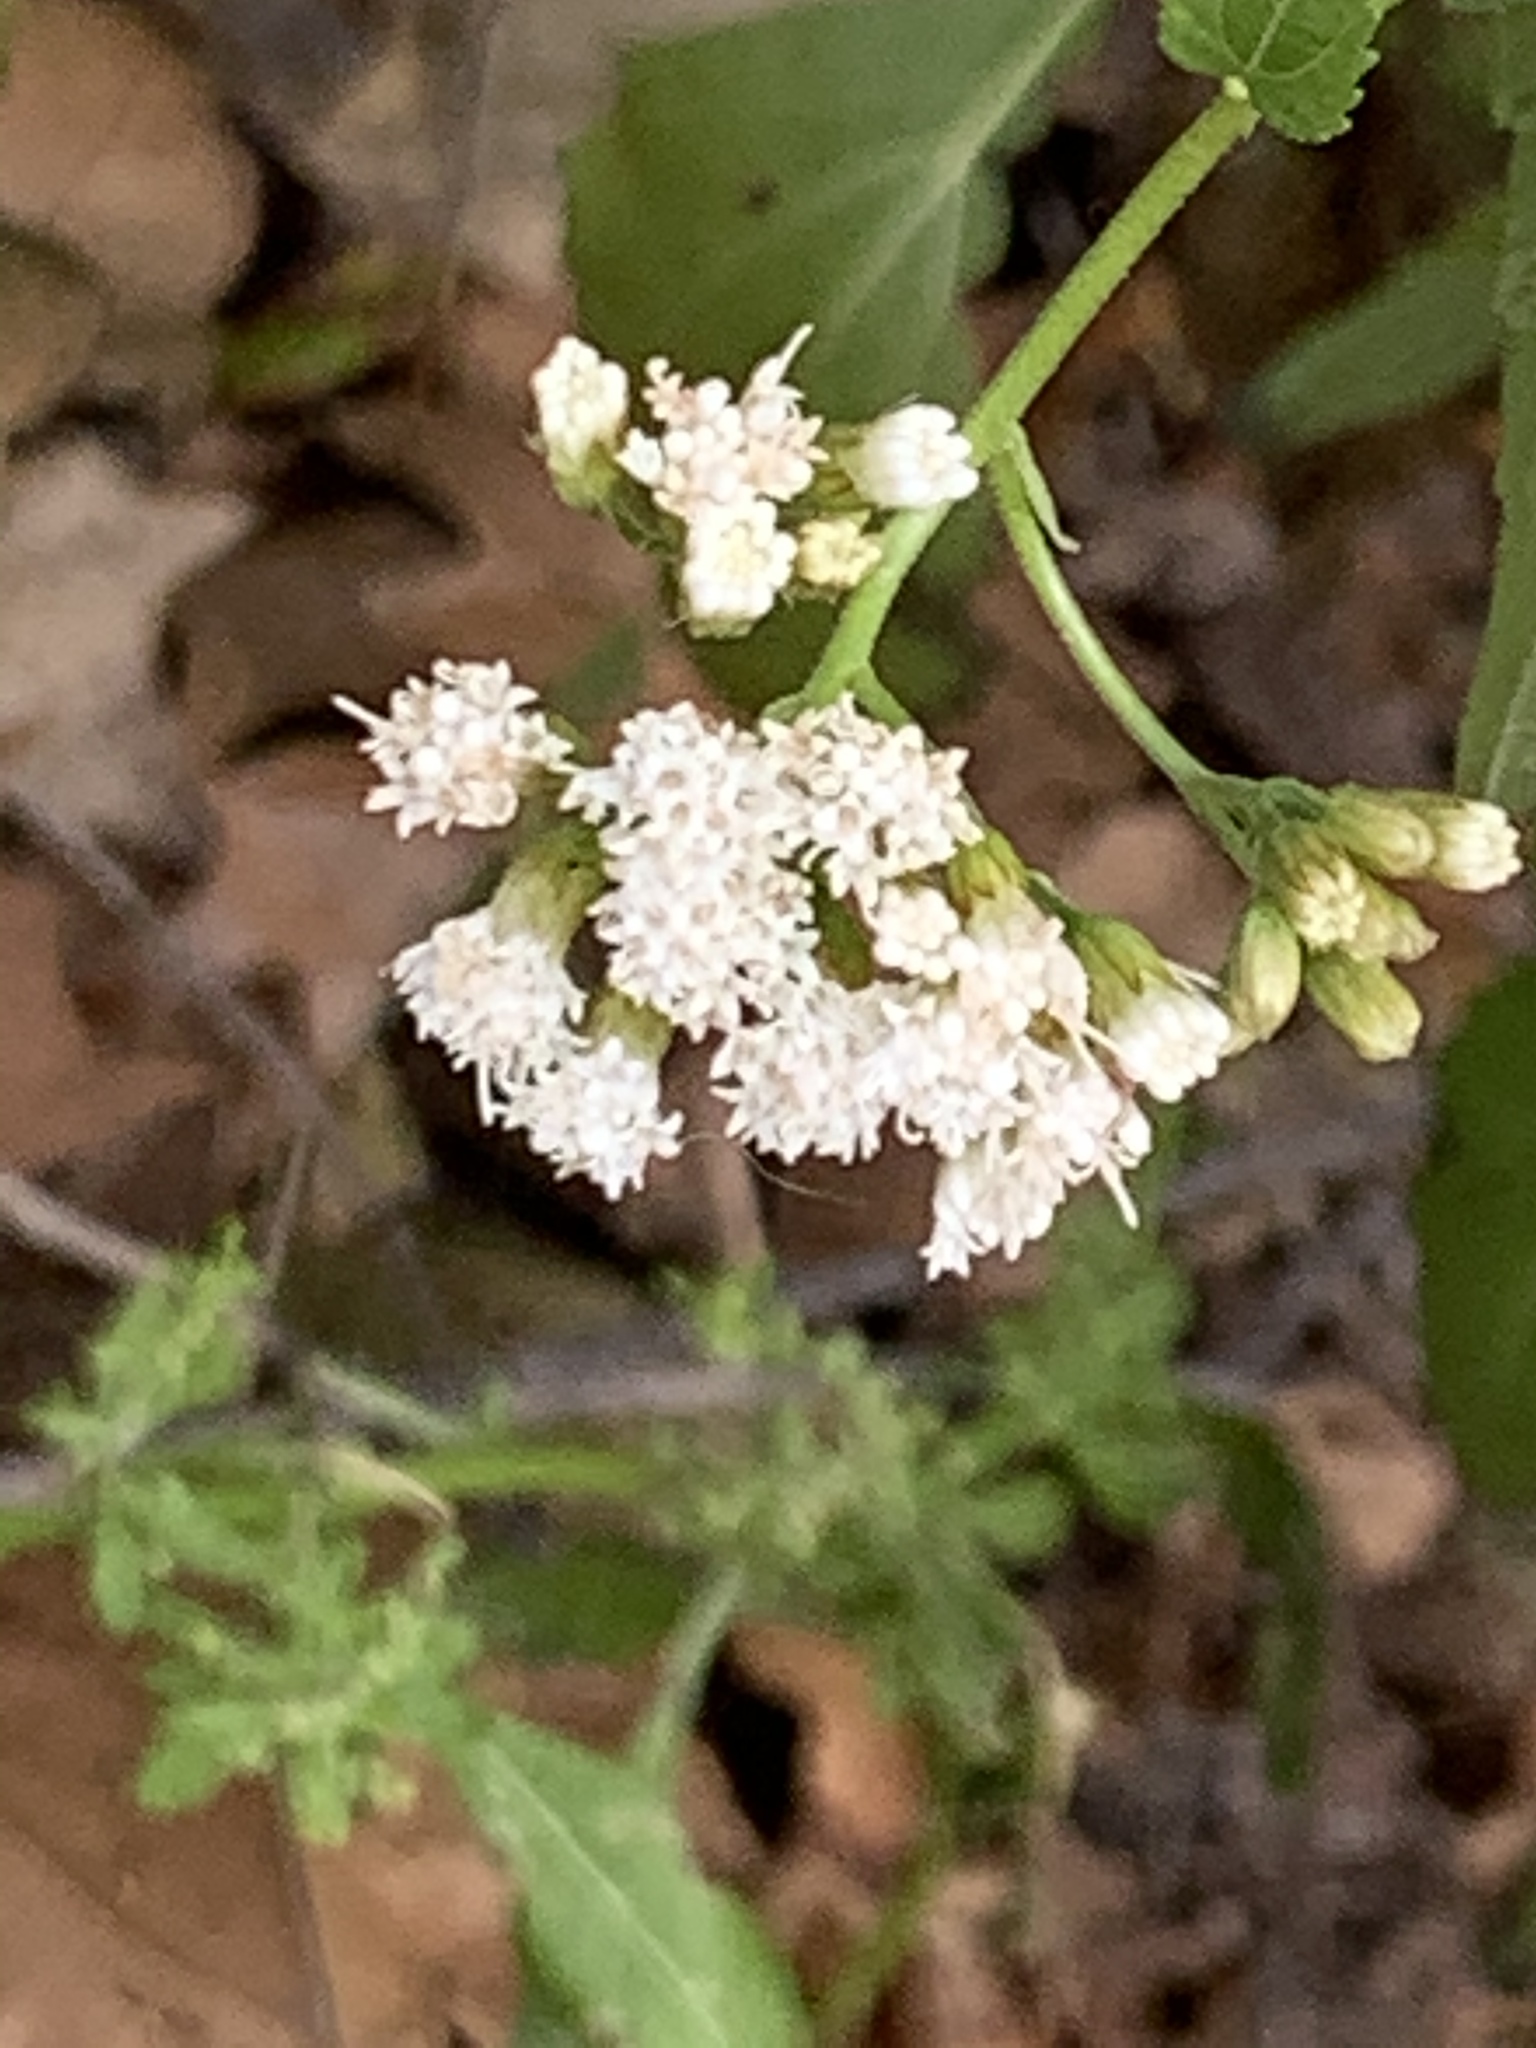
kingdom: Plantae
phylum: Tracheophyta
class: Magnoliopsida
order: Asterales
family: Asteraceae
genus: Ageratina
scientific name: Ageratina altissima
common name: White snakeroot
